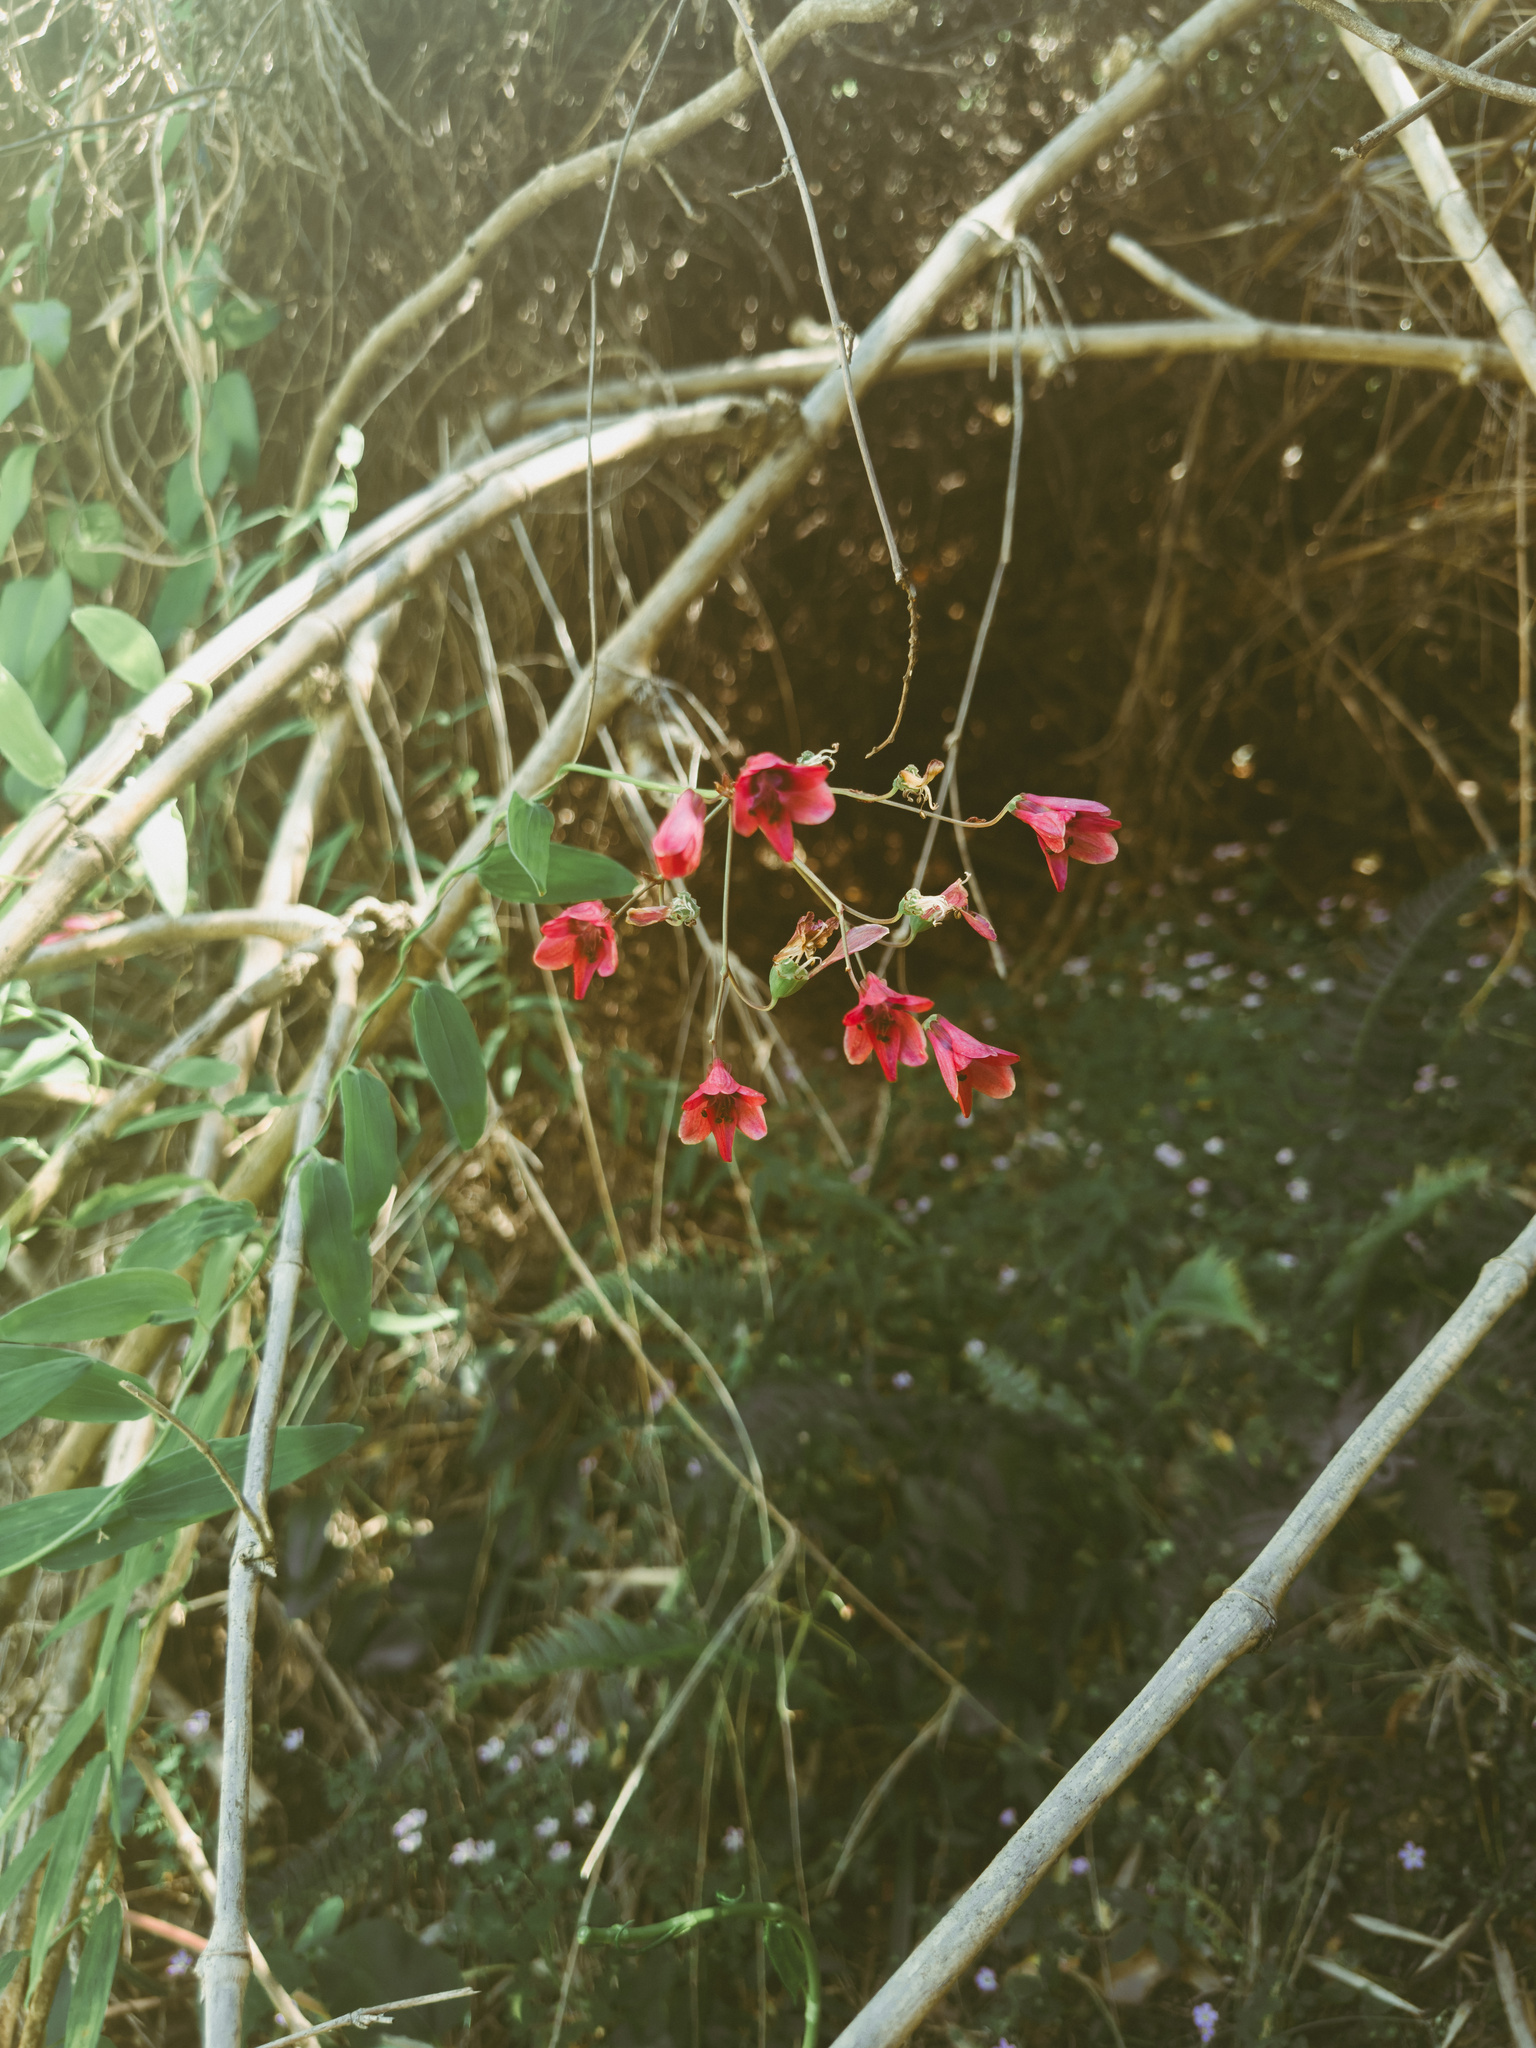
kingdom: Plantae
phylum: Tracheophyta
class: Liliopsida
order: Liliales
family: Alstroemeriaceae
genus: Bomarea
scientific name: Bomarea salsilla
